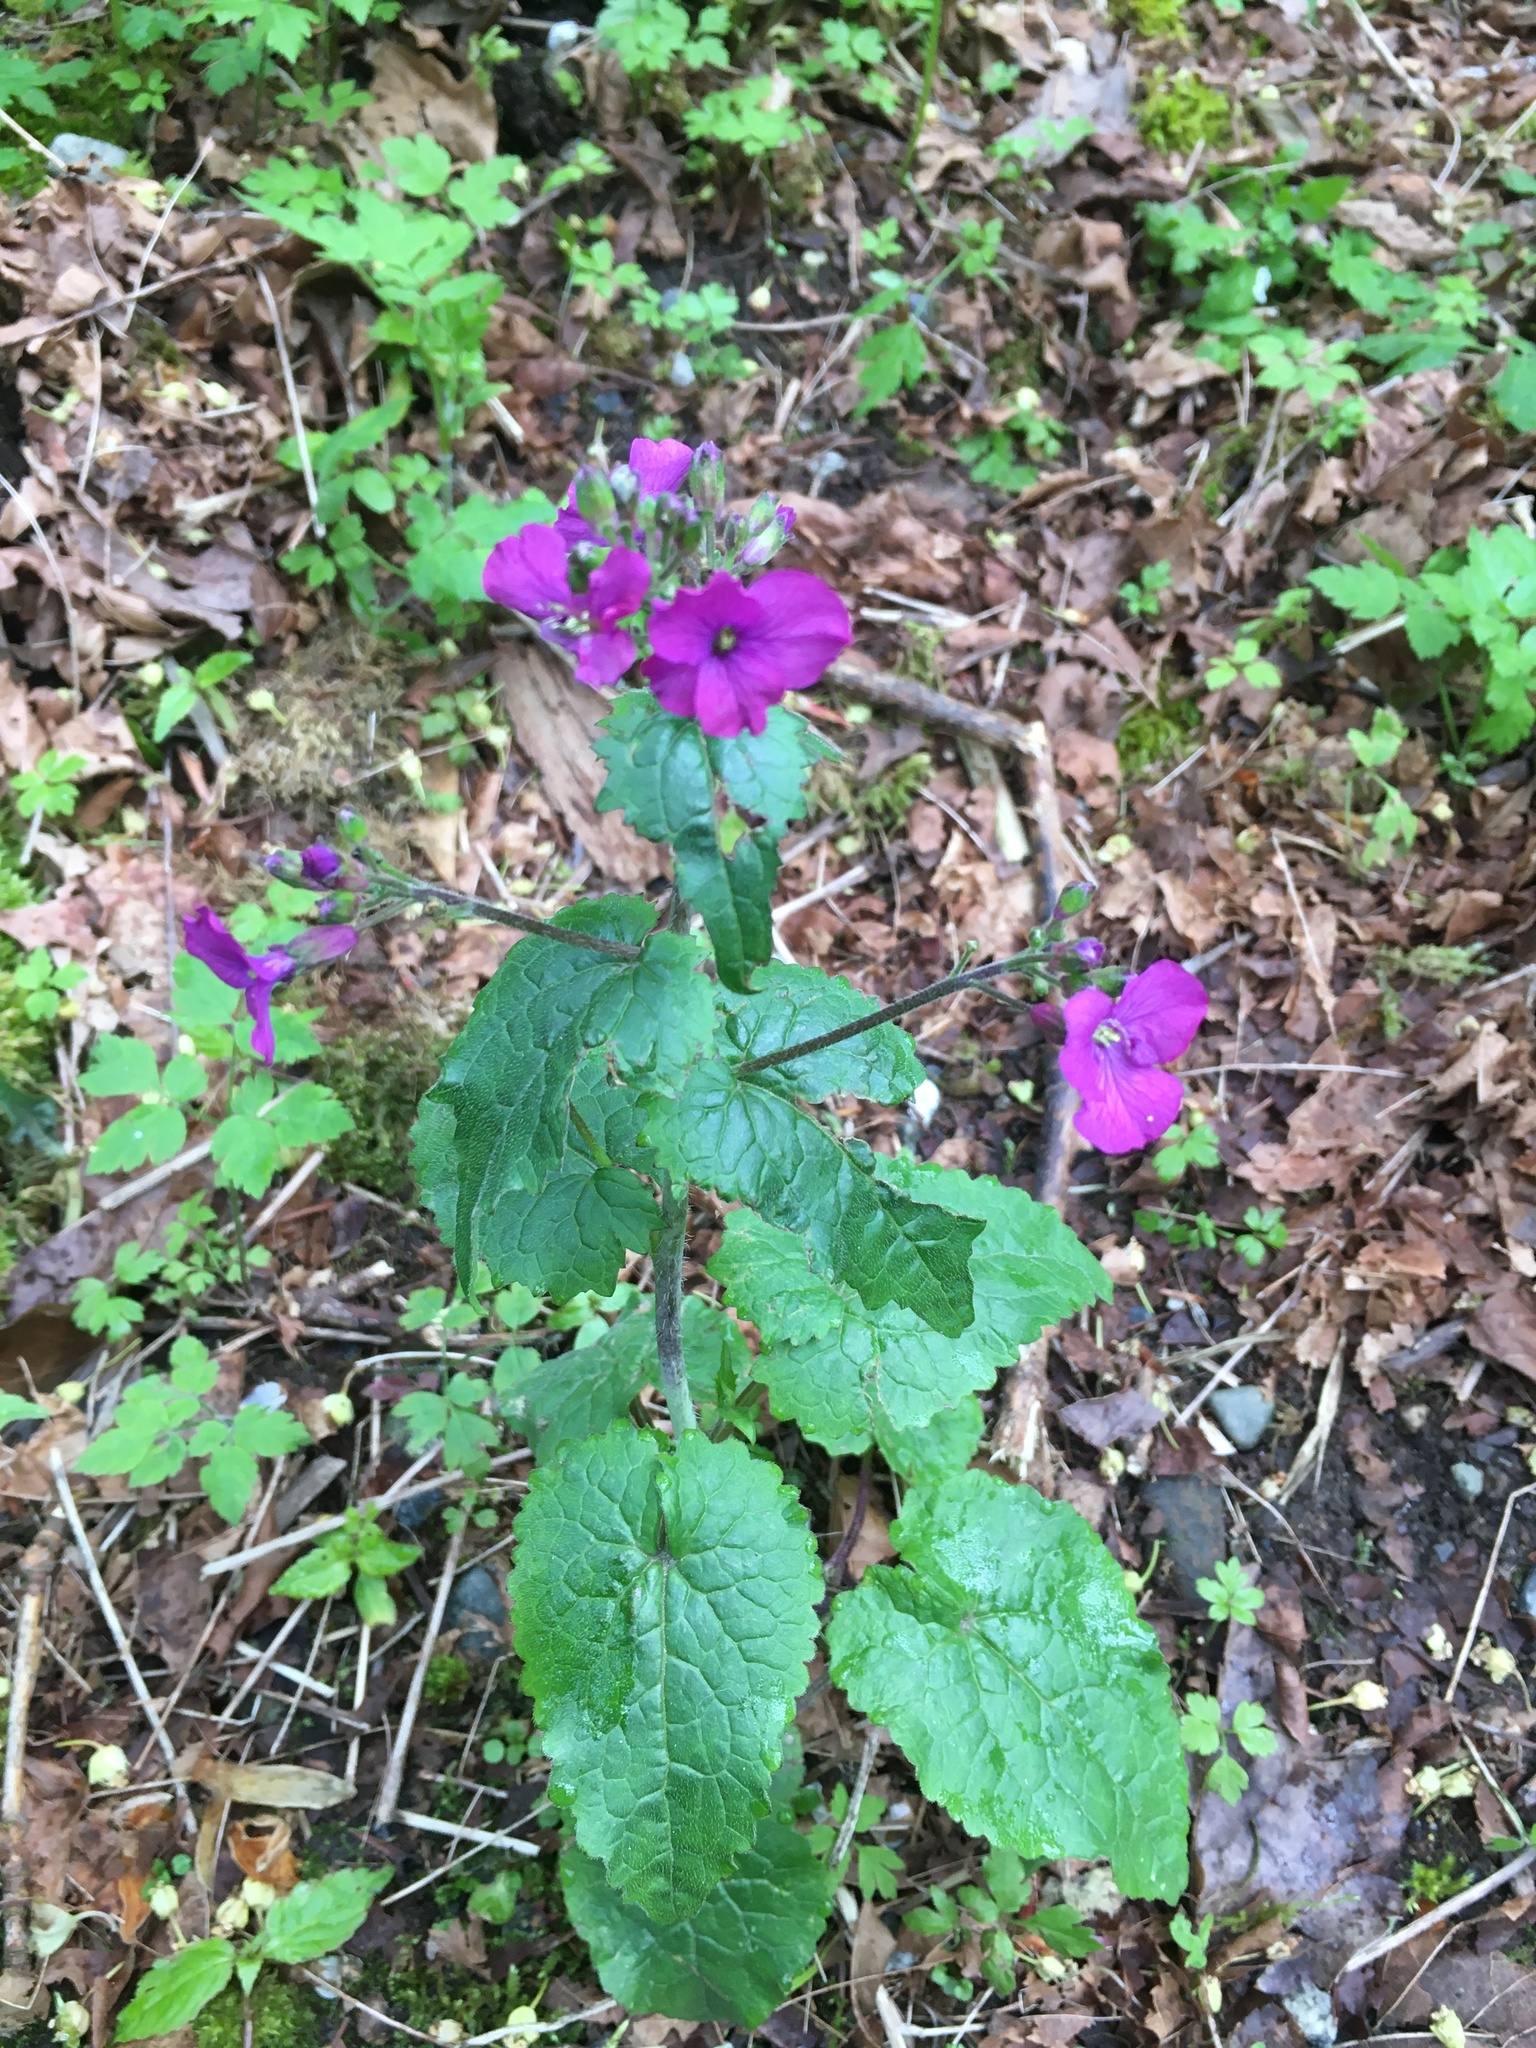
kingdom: Plantae
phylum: Tracheophyta
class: Magnoliopsida
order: Brassicales
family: Brassicaceae
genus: Lunaria
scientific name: Lunaria annua
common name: Honesty
